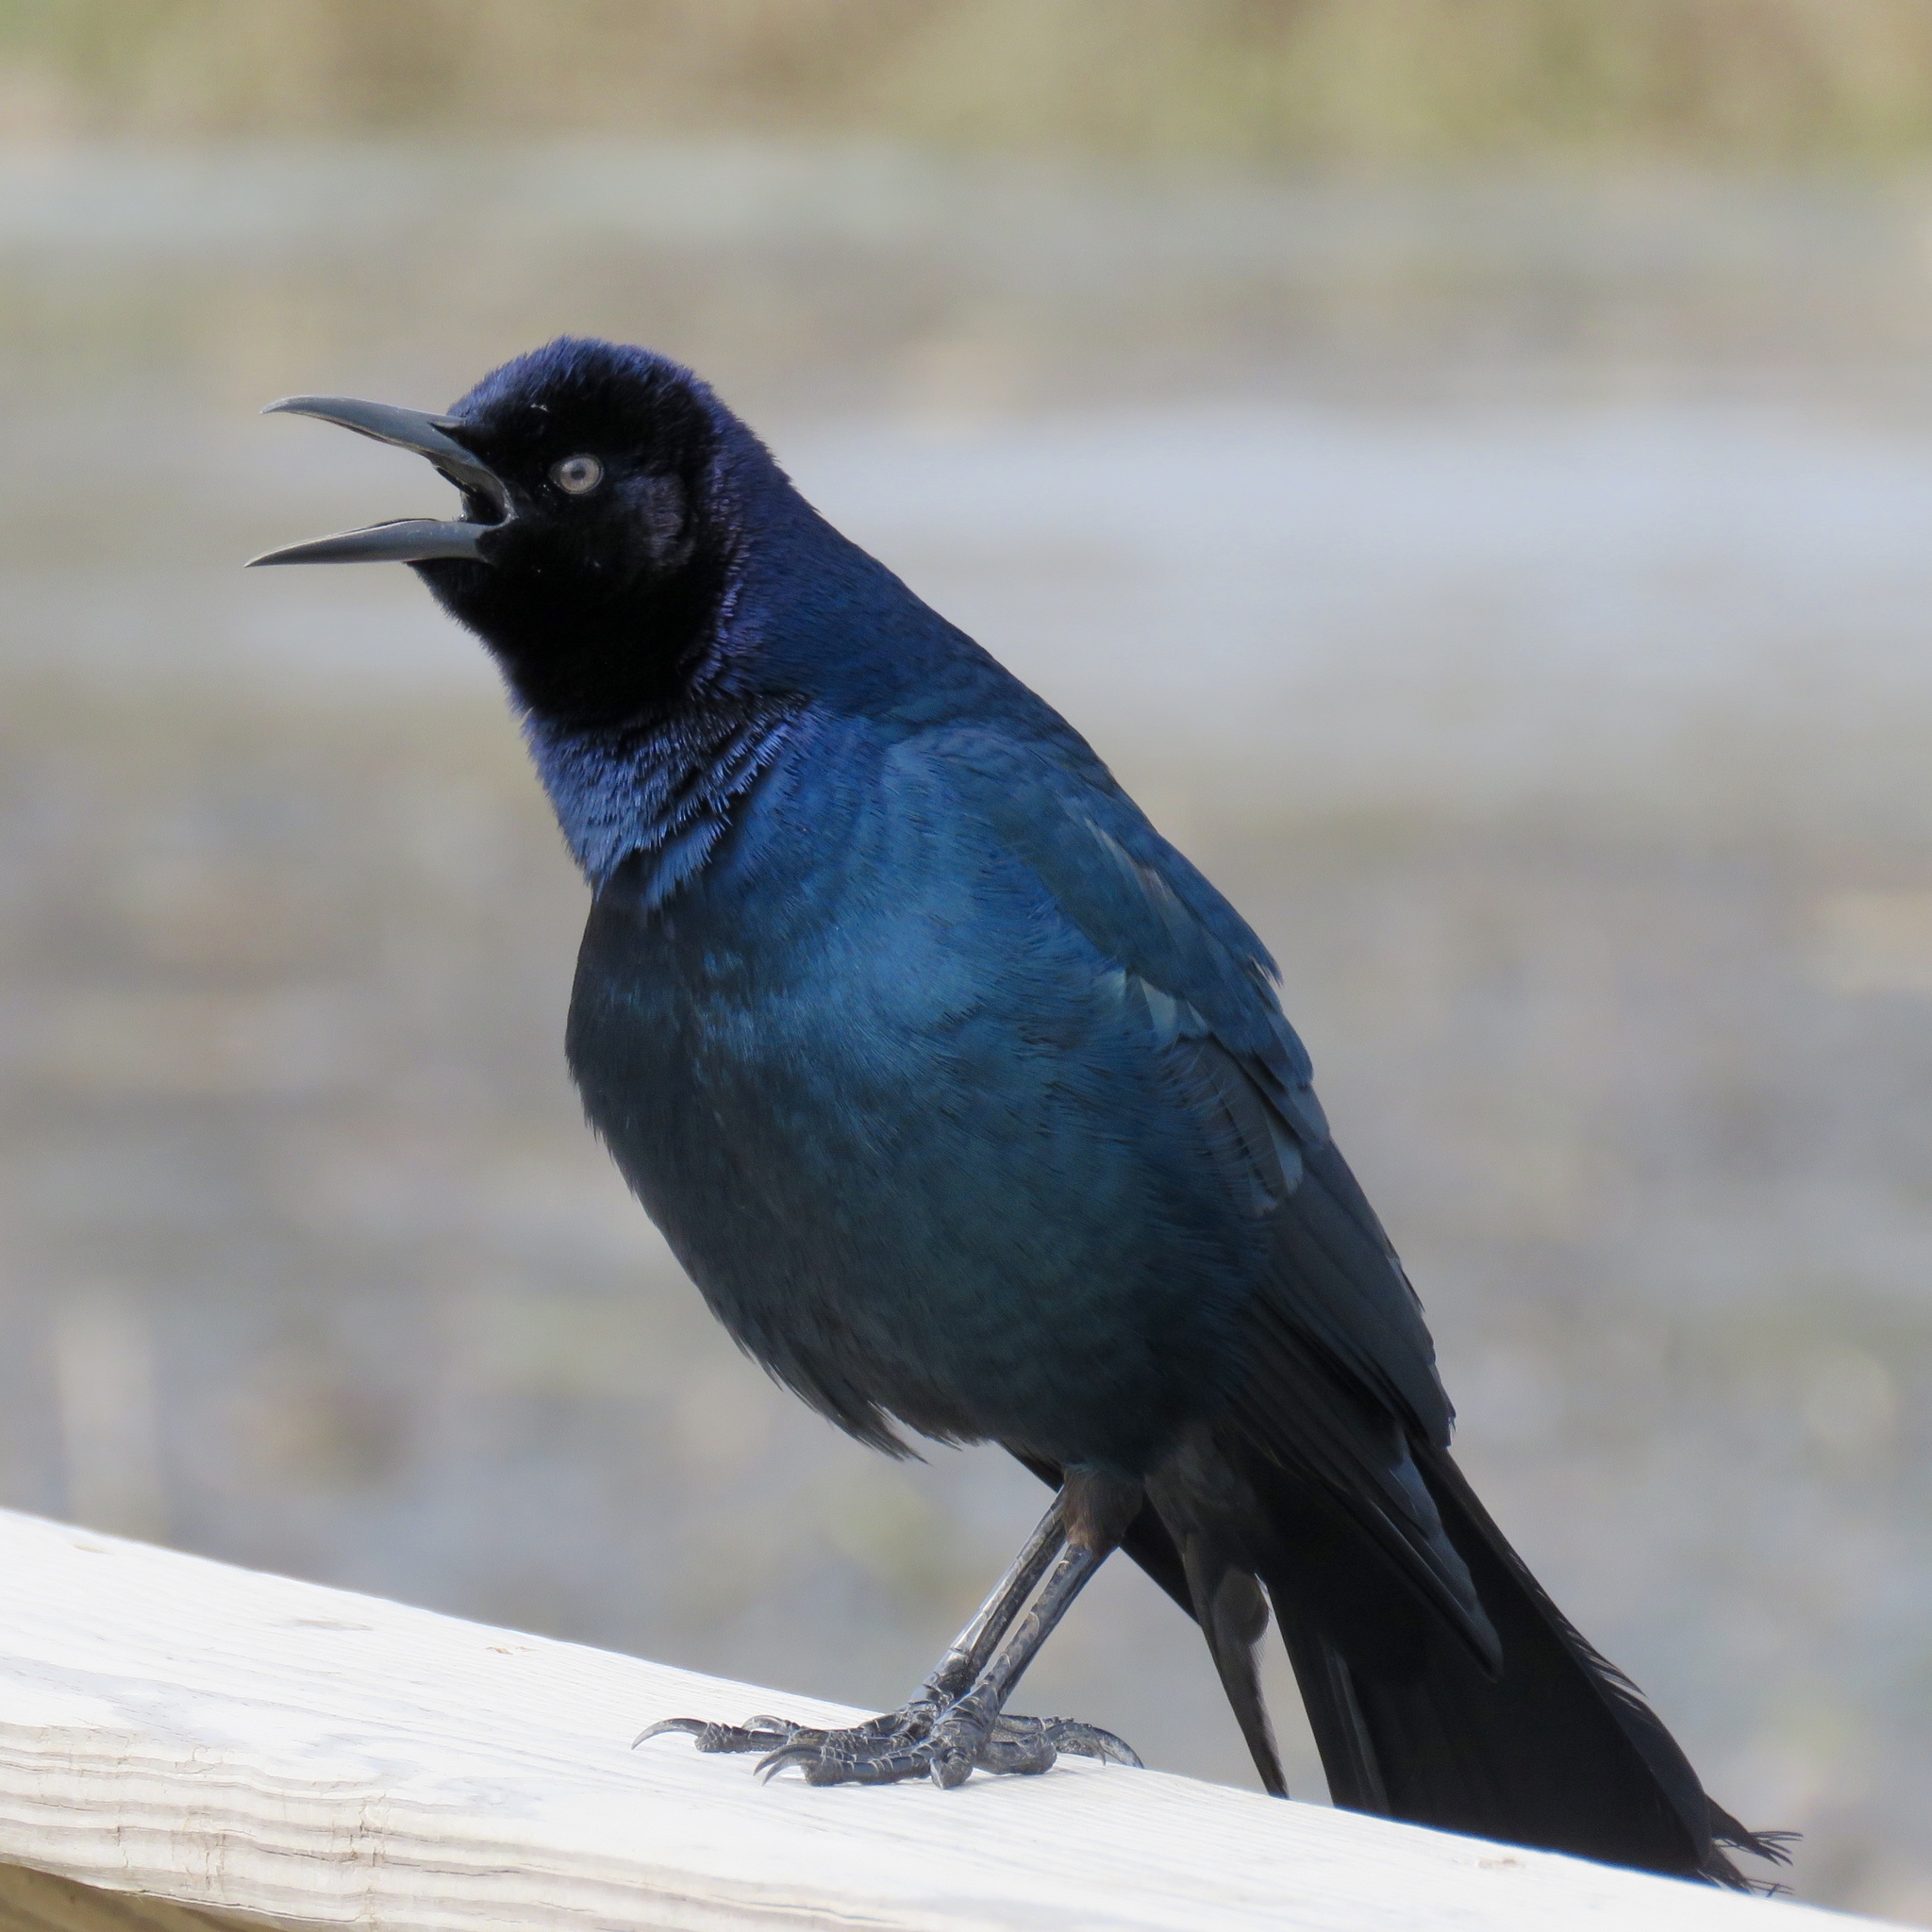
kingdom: Animalia
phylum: Chordata
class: Aves
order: Passeriformes
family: Icteridae
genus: Quiscalus
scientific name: Quiscalus mexicanus
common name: Great-tailed grackle
